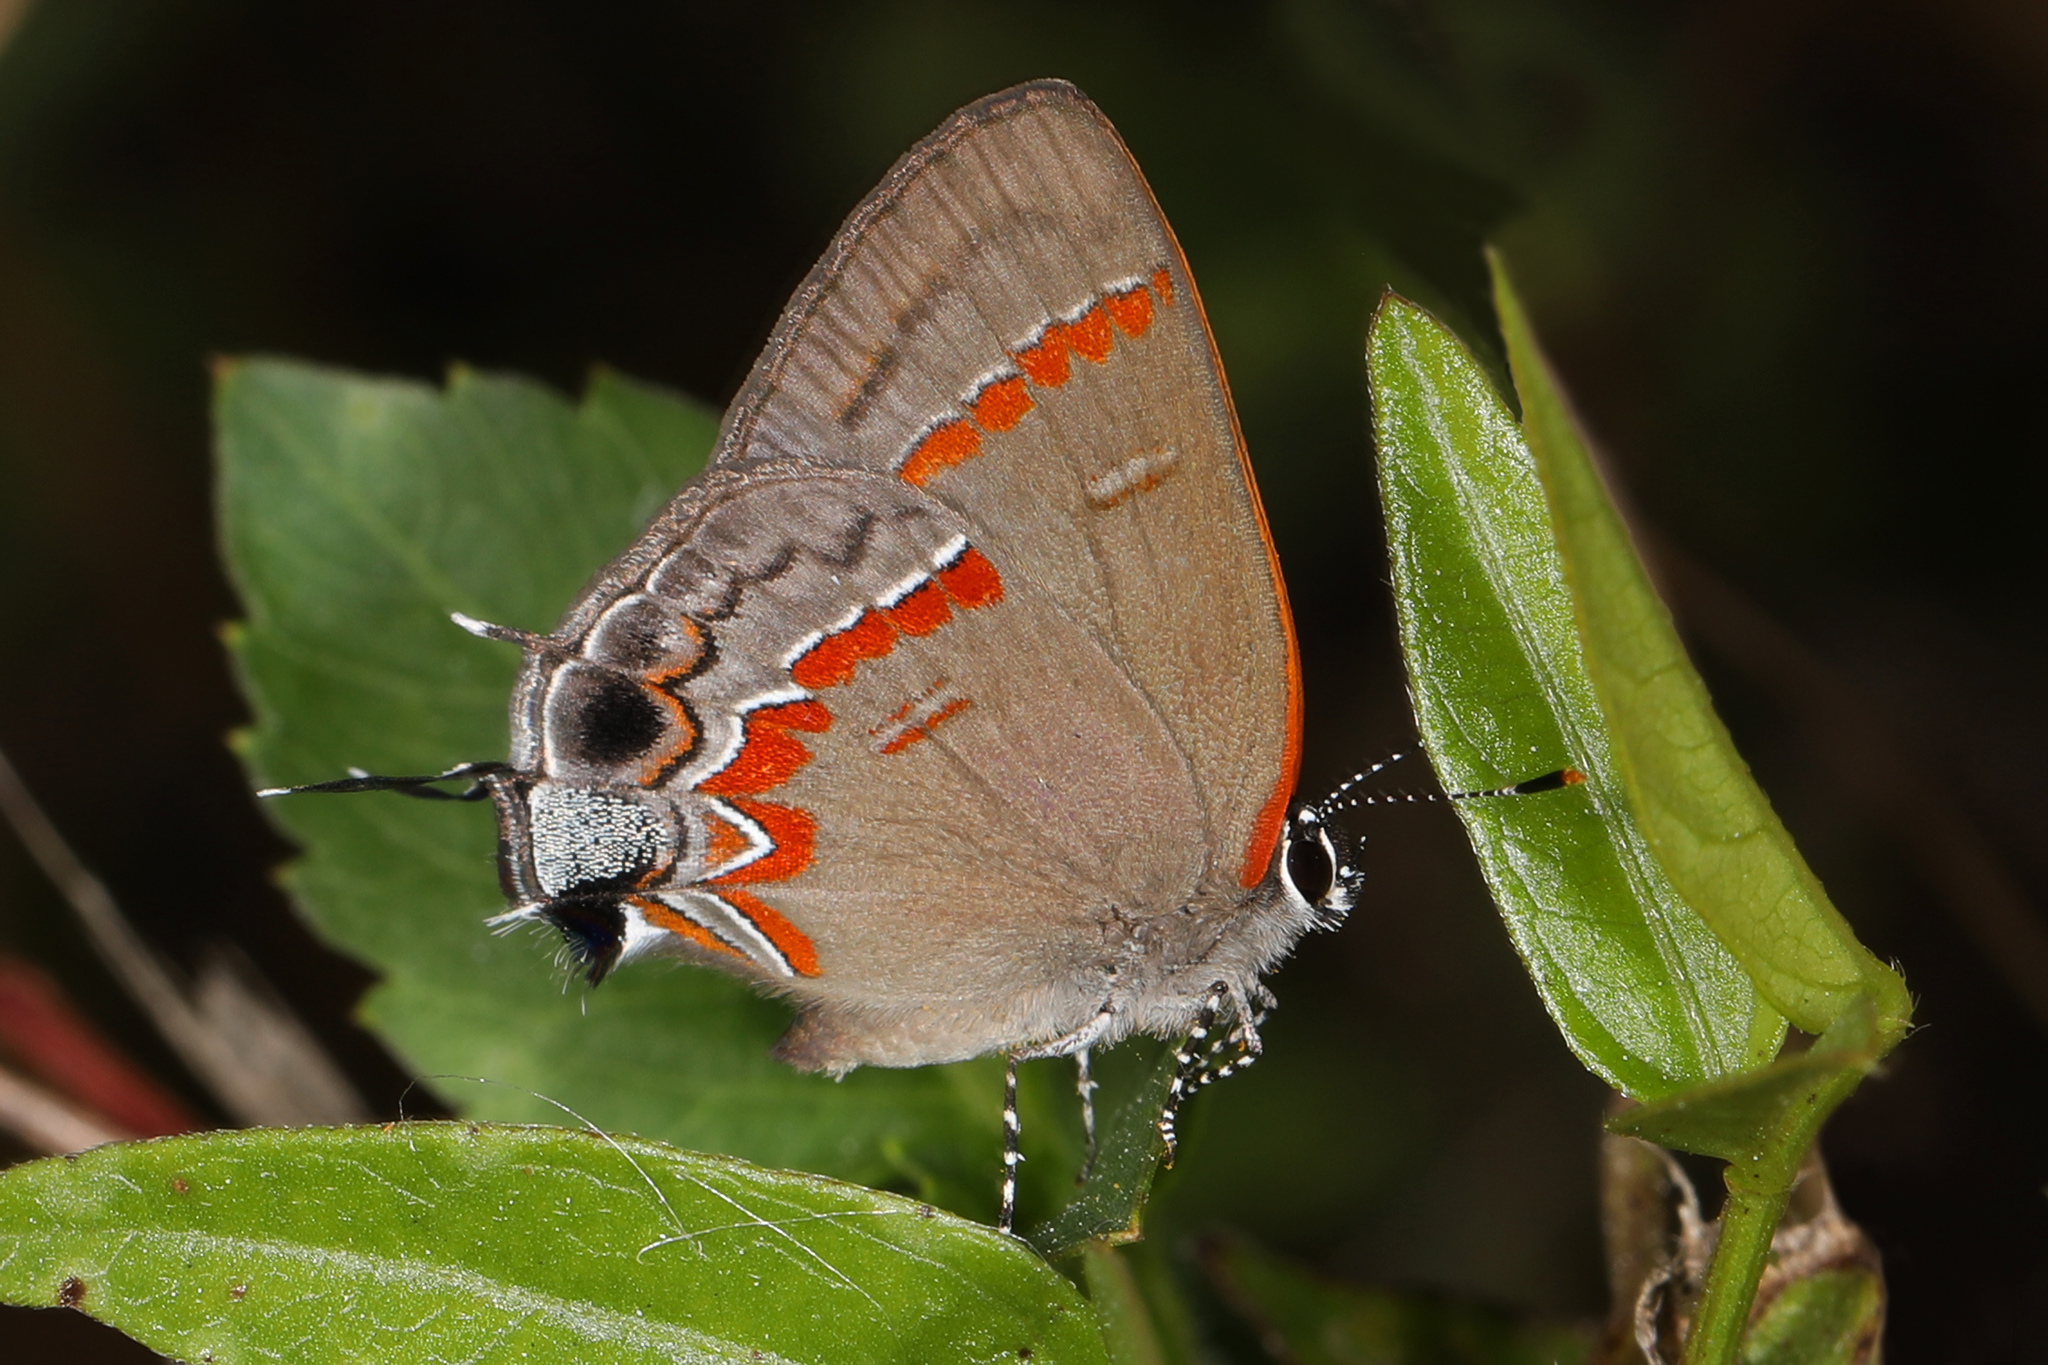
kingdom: Animalia
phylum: Arthropoda
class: Insecta
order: Lepidoptera
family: Lycaenidae
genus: Calycopis
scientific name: Calycopis cecrops
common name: Red-banded hairstreak
